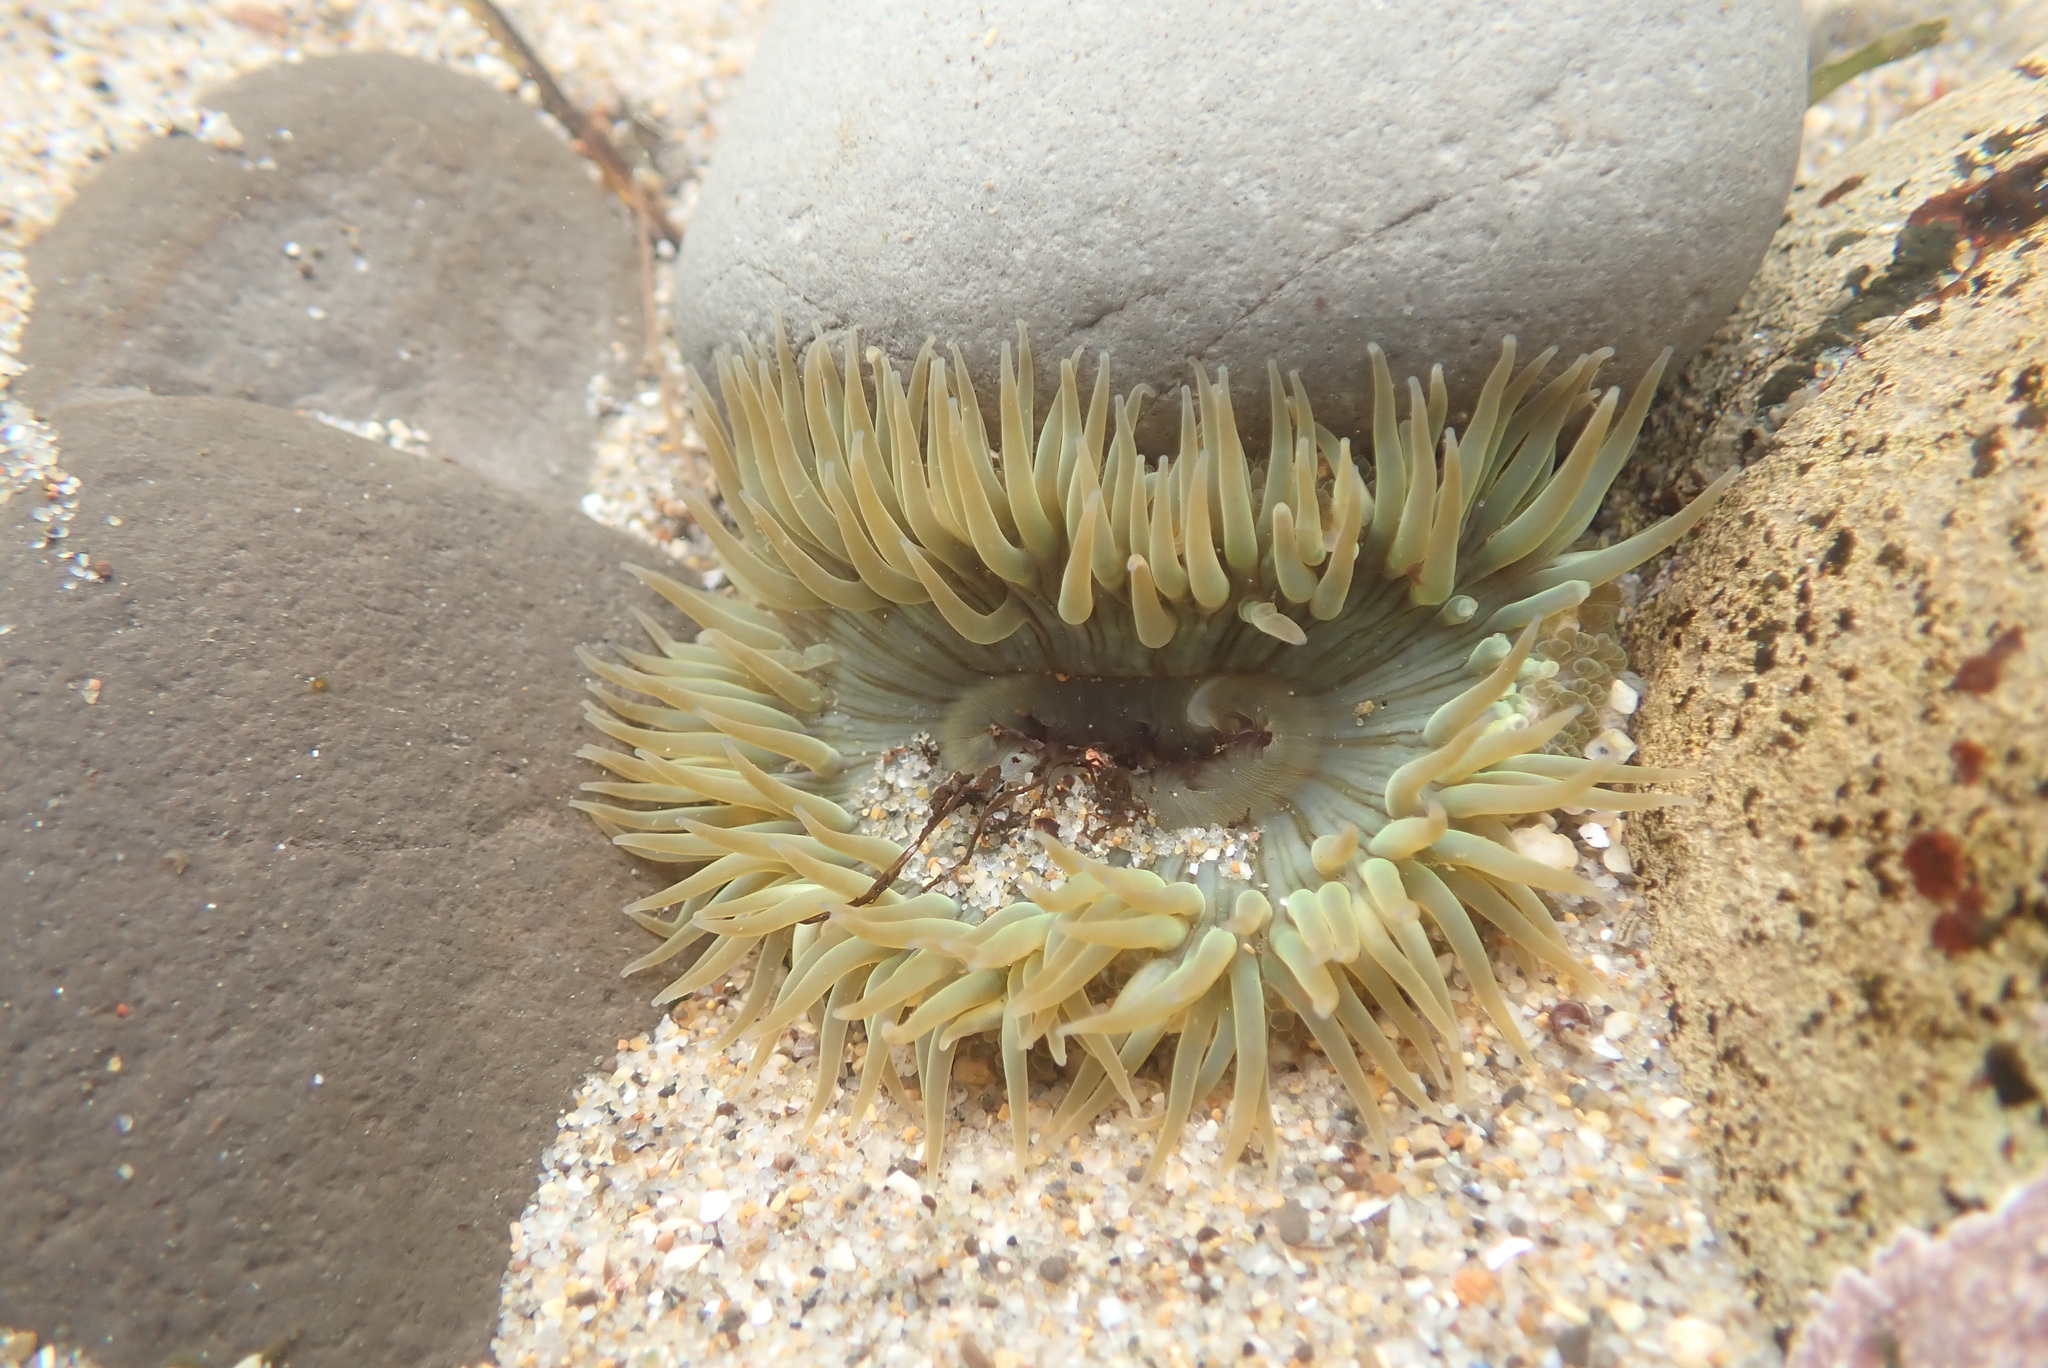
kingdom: Animalia
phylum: Cnidaria
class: Anthozoa
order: Actiniaria
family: Actiniidae
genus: Anthopleura
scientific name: Anthopleura sola
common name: Sun anemone
